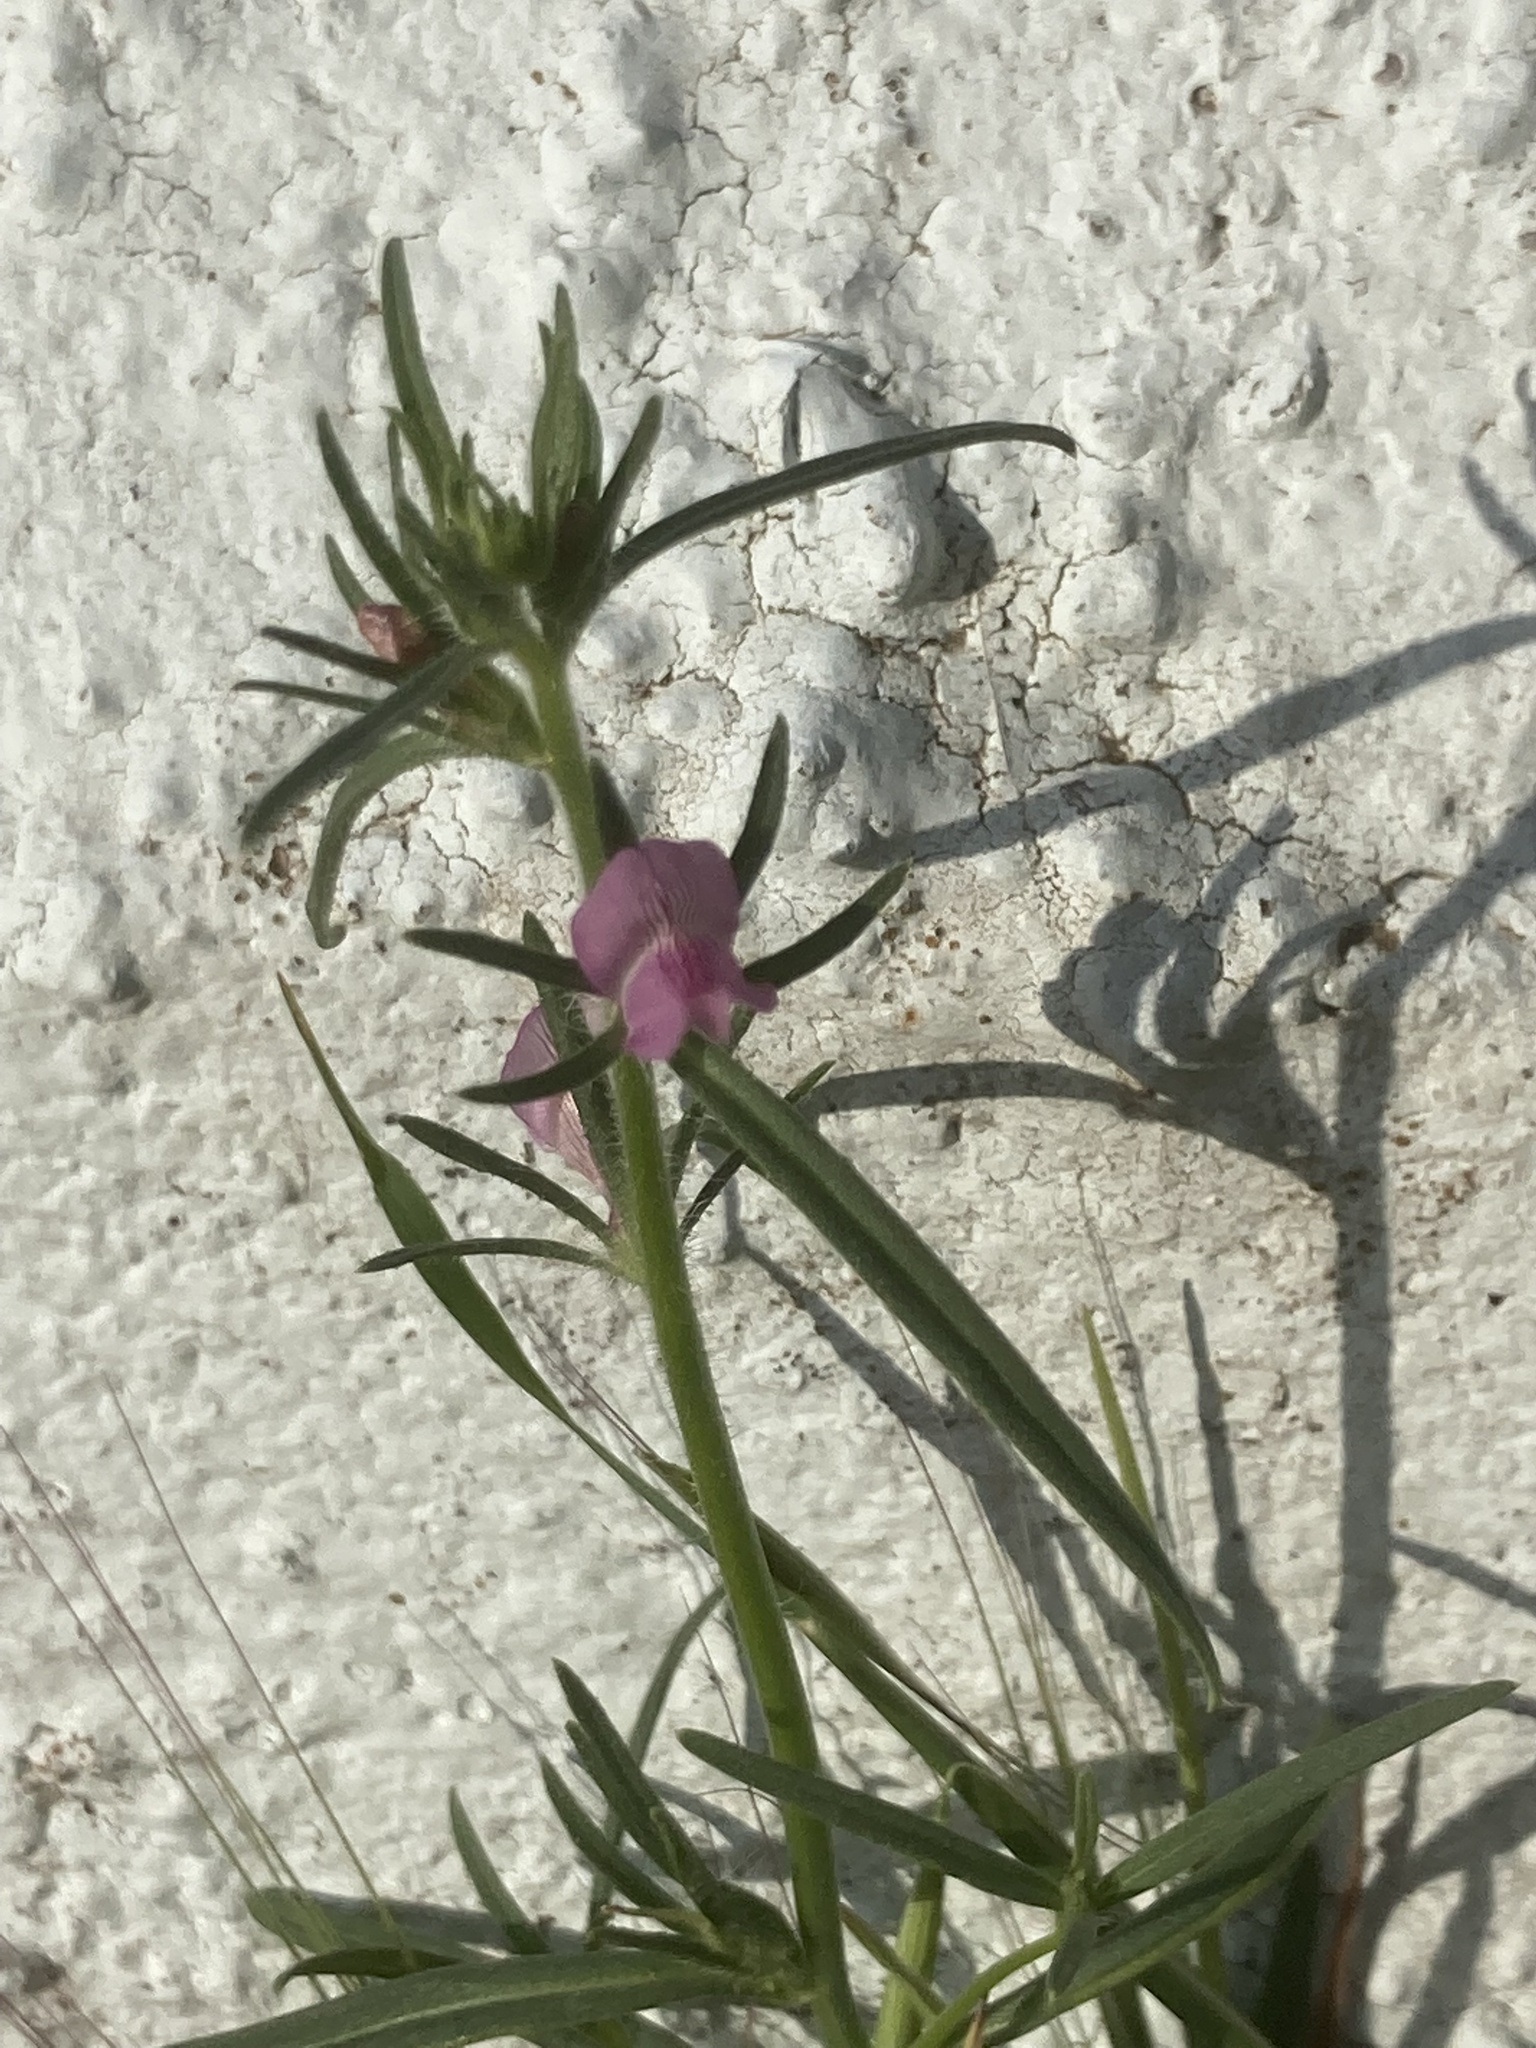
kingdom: Plantae
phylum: Tracheophyta
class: Magnoliopsida
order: Lamiales
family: Plantaginaceae
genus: Misopates
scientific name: Misopates orontium
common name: Weasel's-snout
